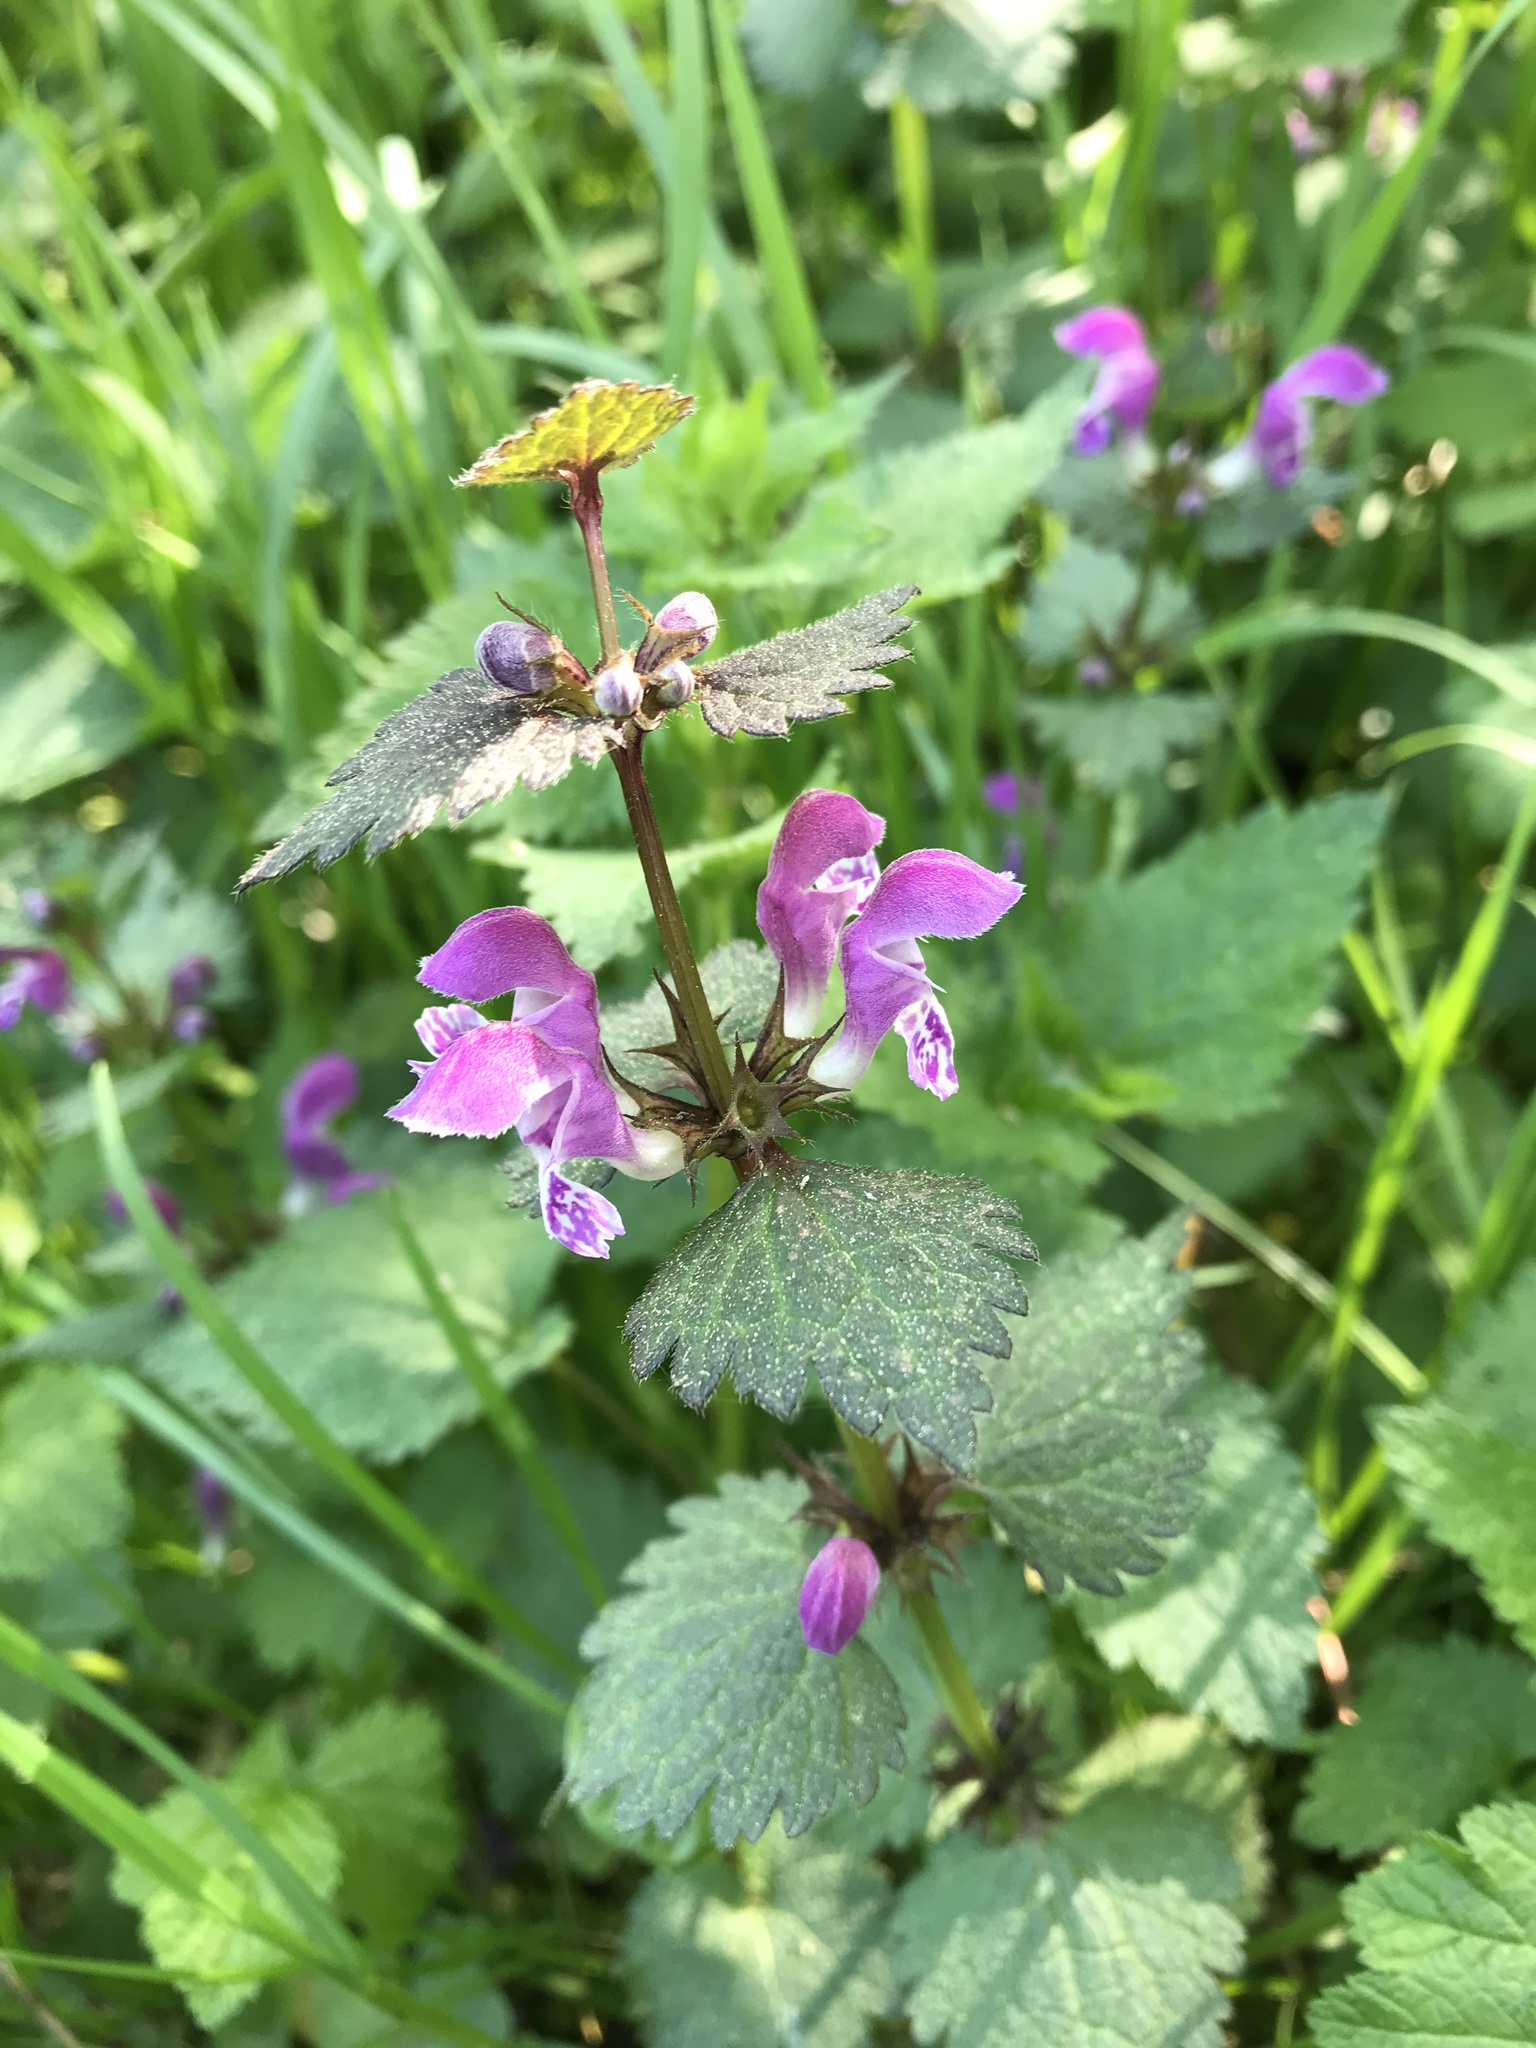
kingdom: Plantae
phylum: Tracheophyta
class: Magnoliopsida
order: Lamiales
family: Lamiaceae
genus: Lamium
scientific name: Lamium maculatum
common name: Spotted dead-nettle
